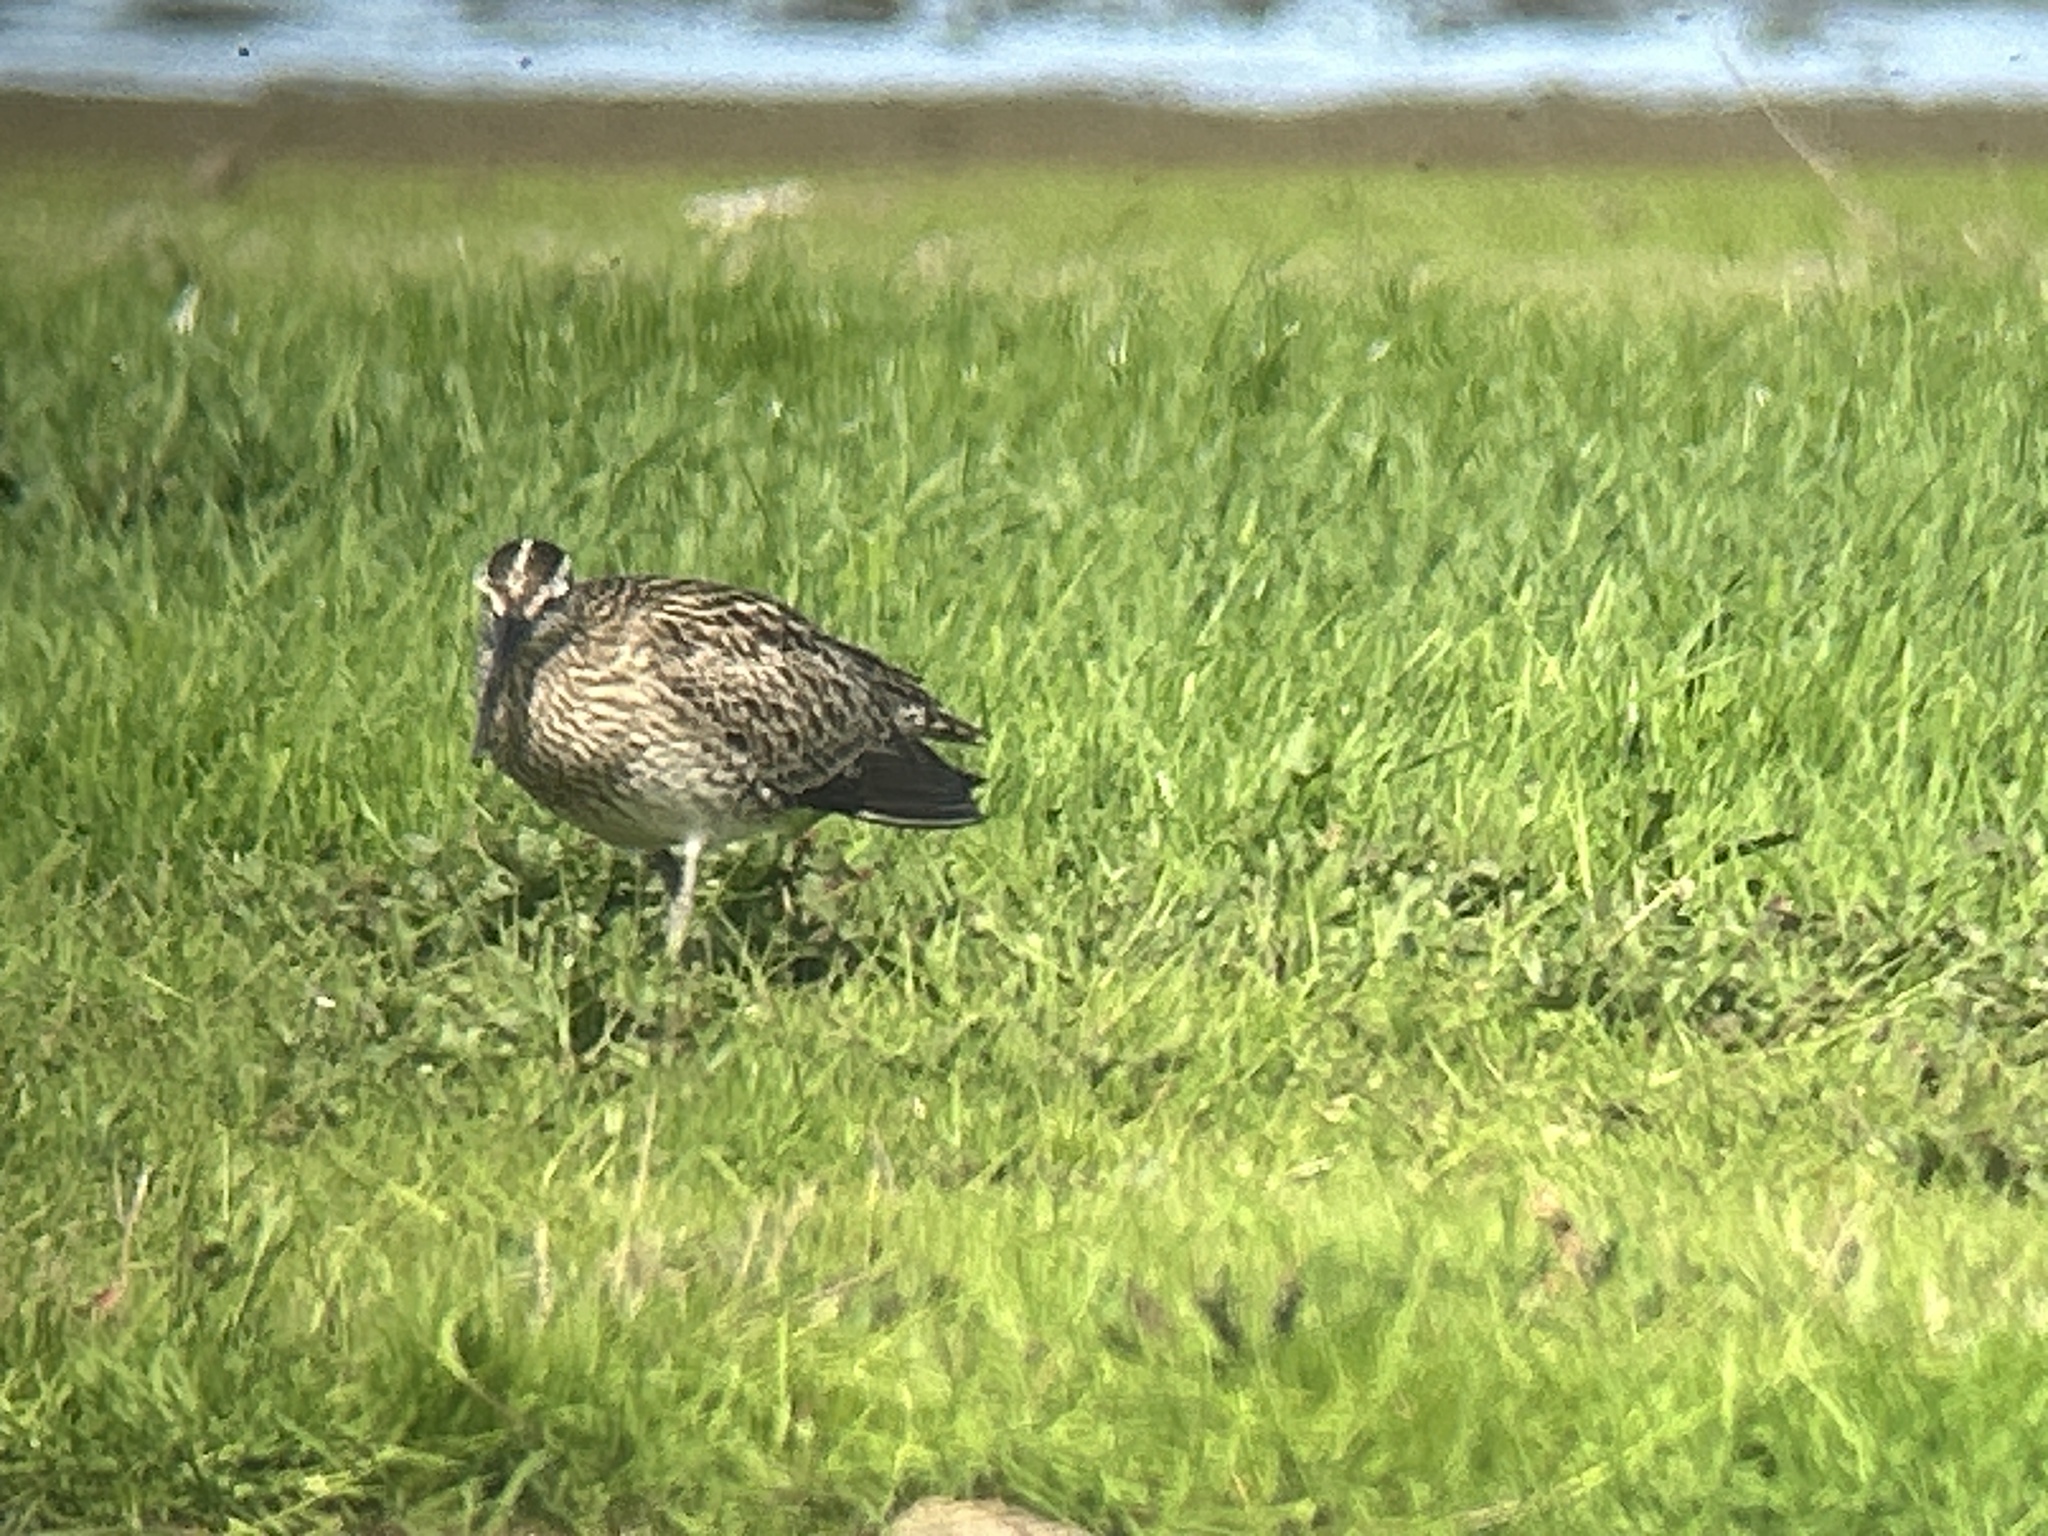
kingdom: Animalia
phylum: Chordata
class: Aves
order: Charadriiformes
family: Scolopacidae
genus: Numenius
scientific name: Numenius phaeopus
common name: Whimbrel
